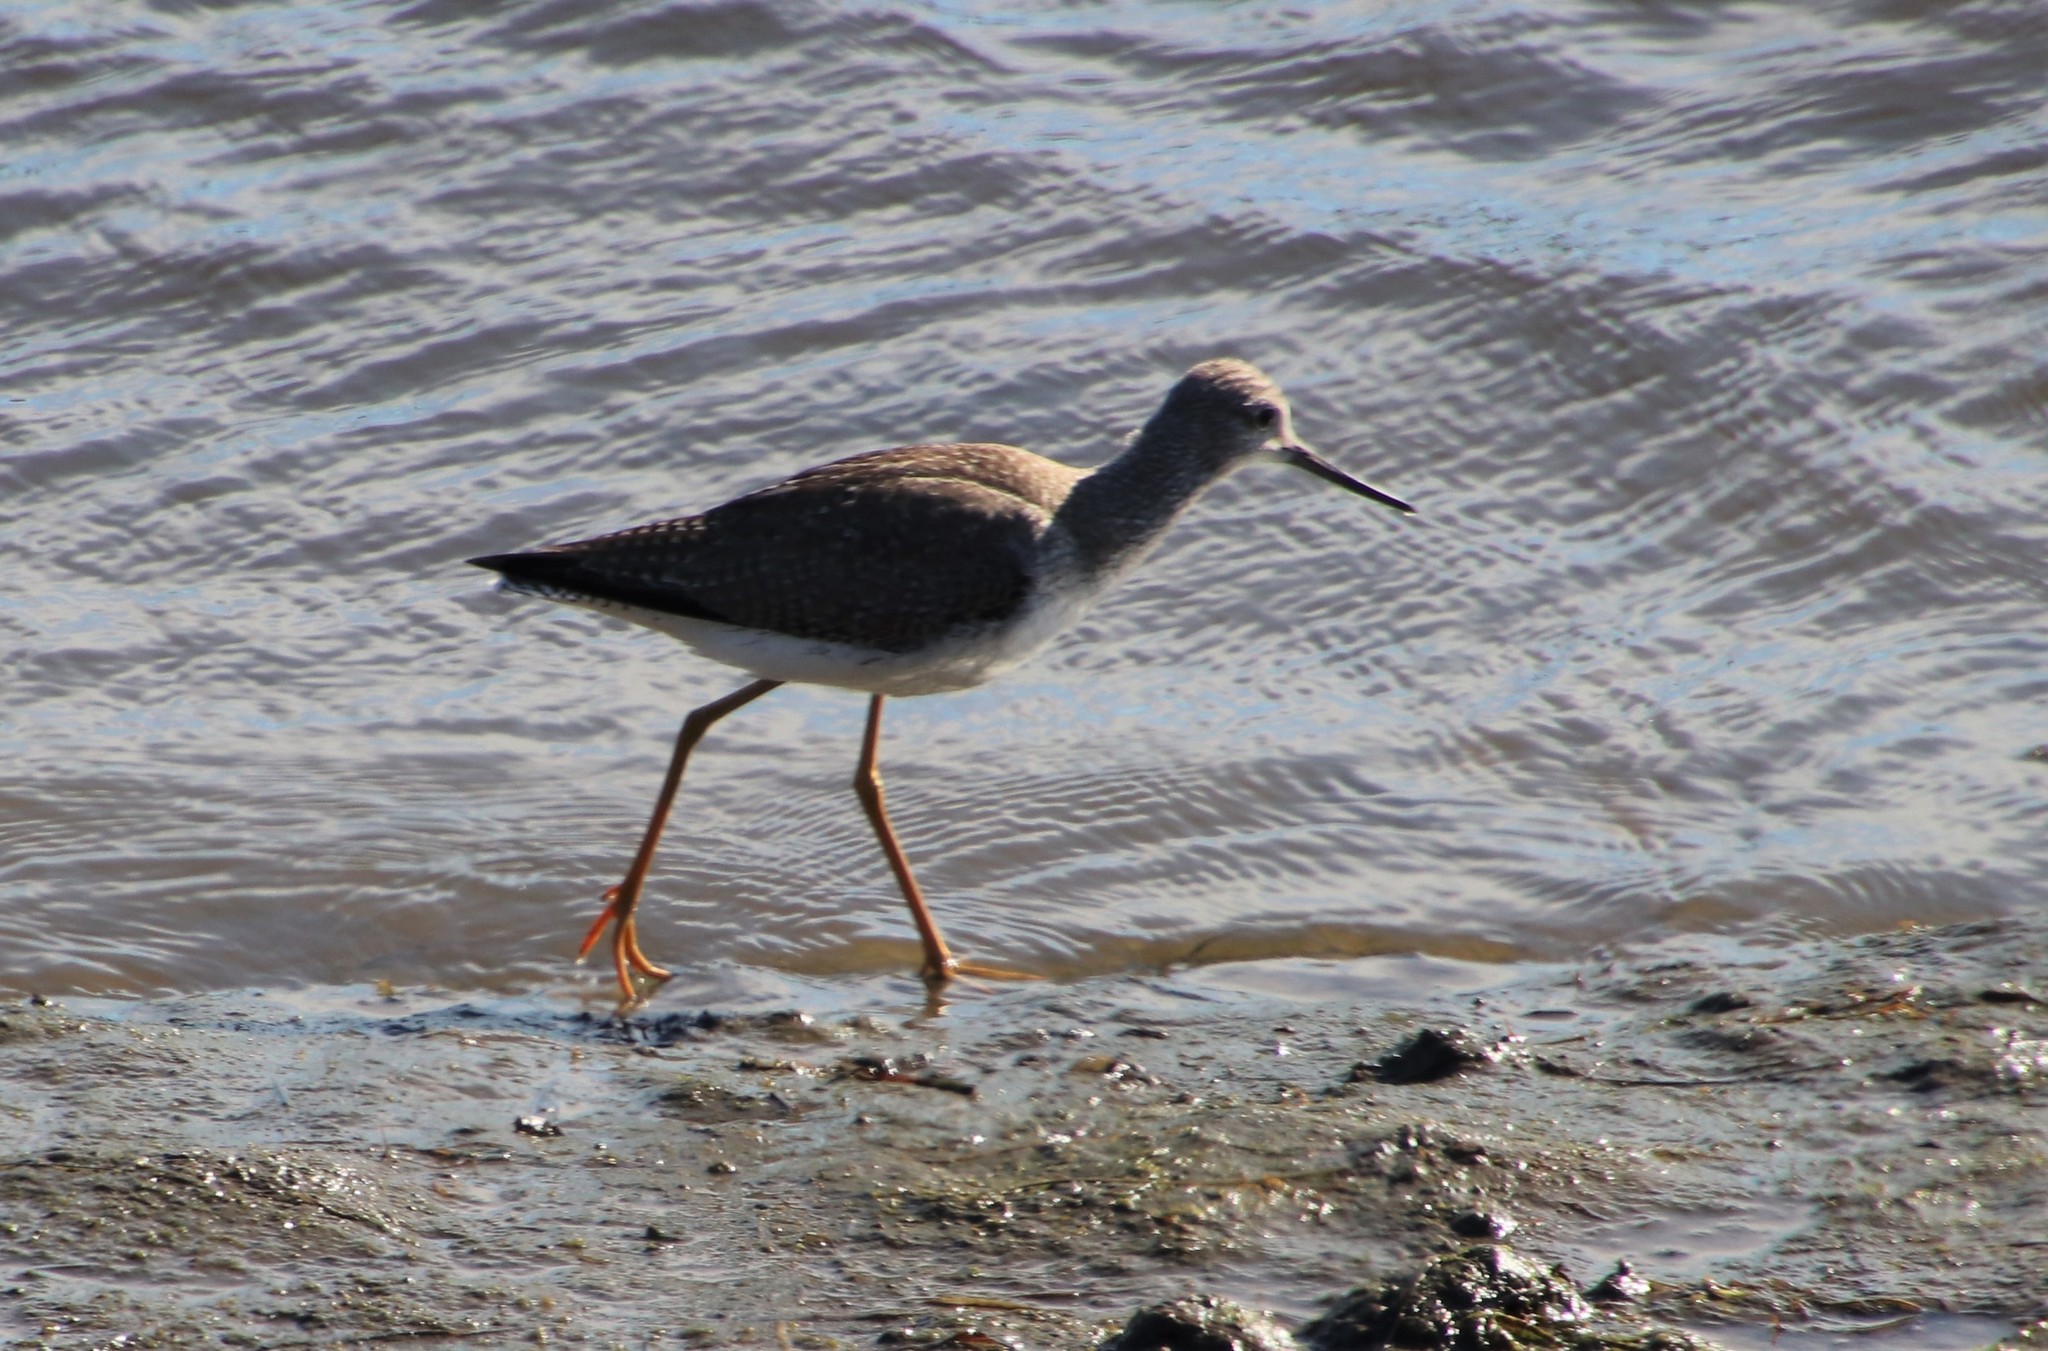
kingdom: Animalia
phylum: Chordata
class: Aves
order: Charadriiformes
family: Scolopacidae
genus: Tringa
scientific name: Tringa melanoleuca
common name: Greater yellowlegs
